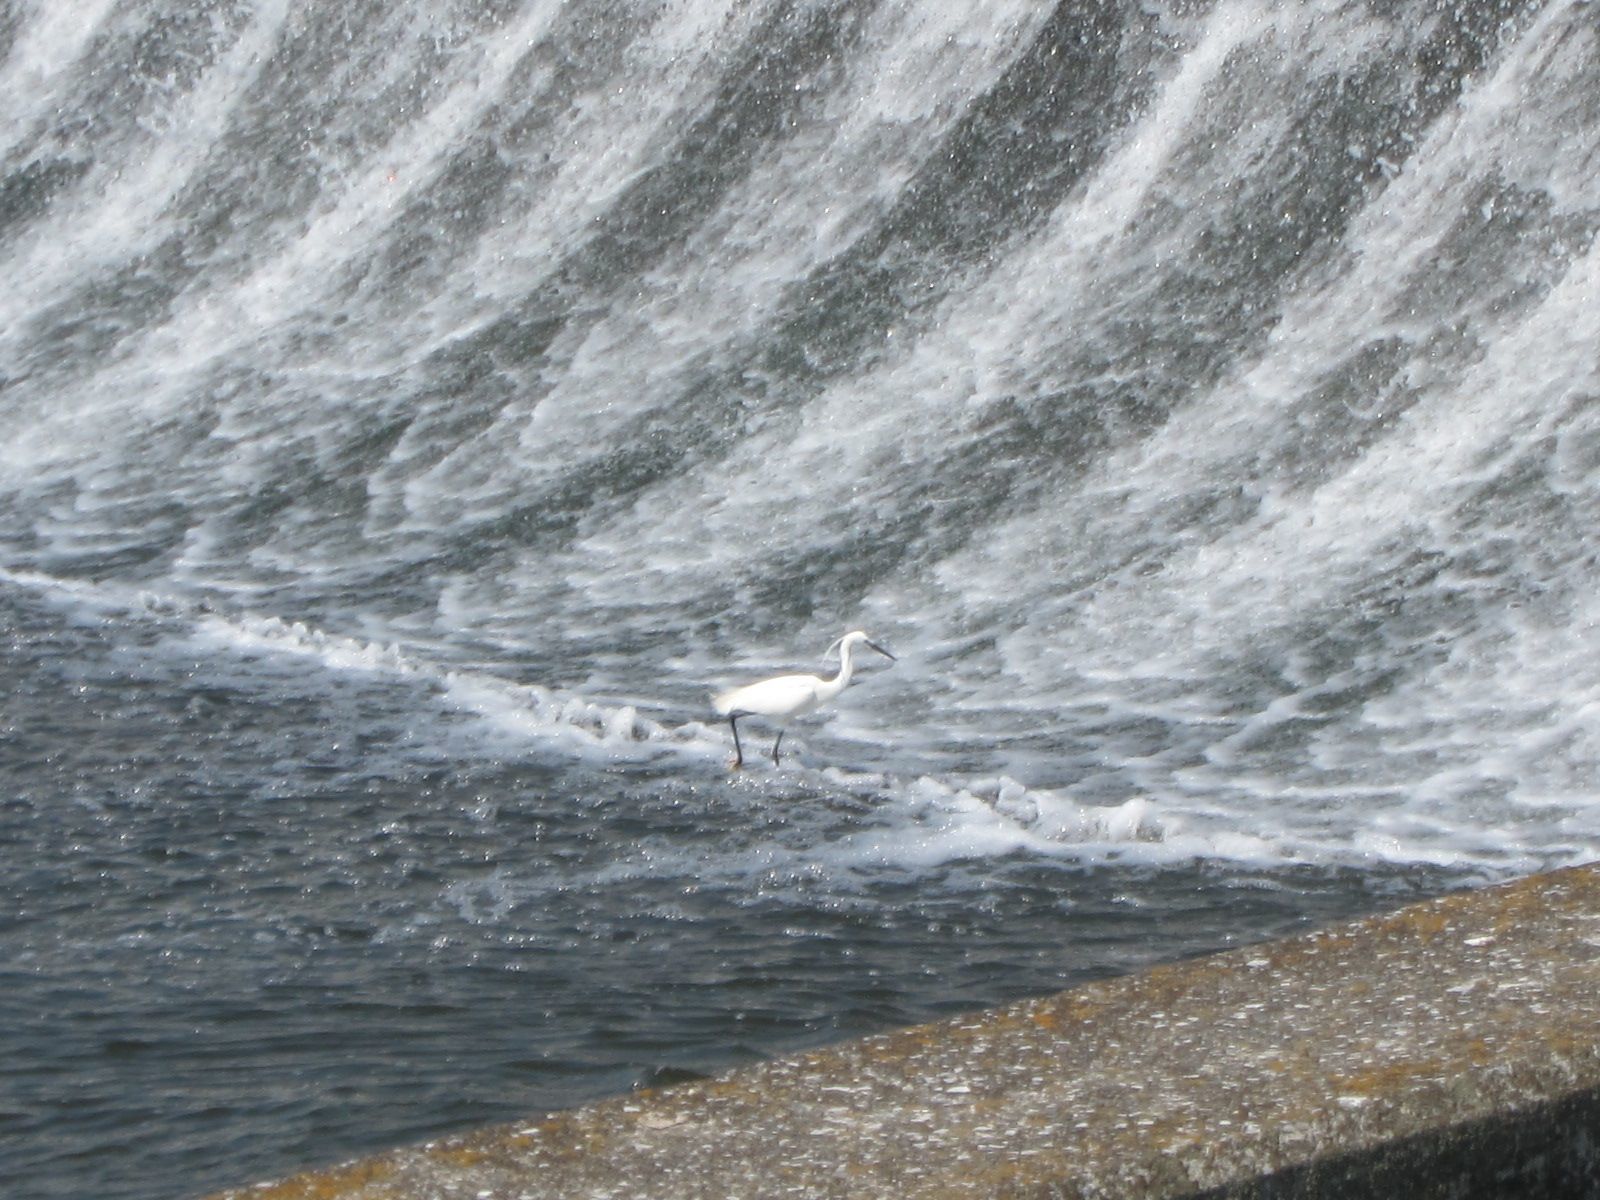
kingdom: Animalia
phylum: Chordata
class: Aves
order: Pelecaniformes
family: Ardeidae
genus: Egretta
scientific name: Egretta garzetta
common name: Little egret
